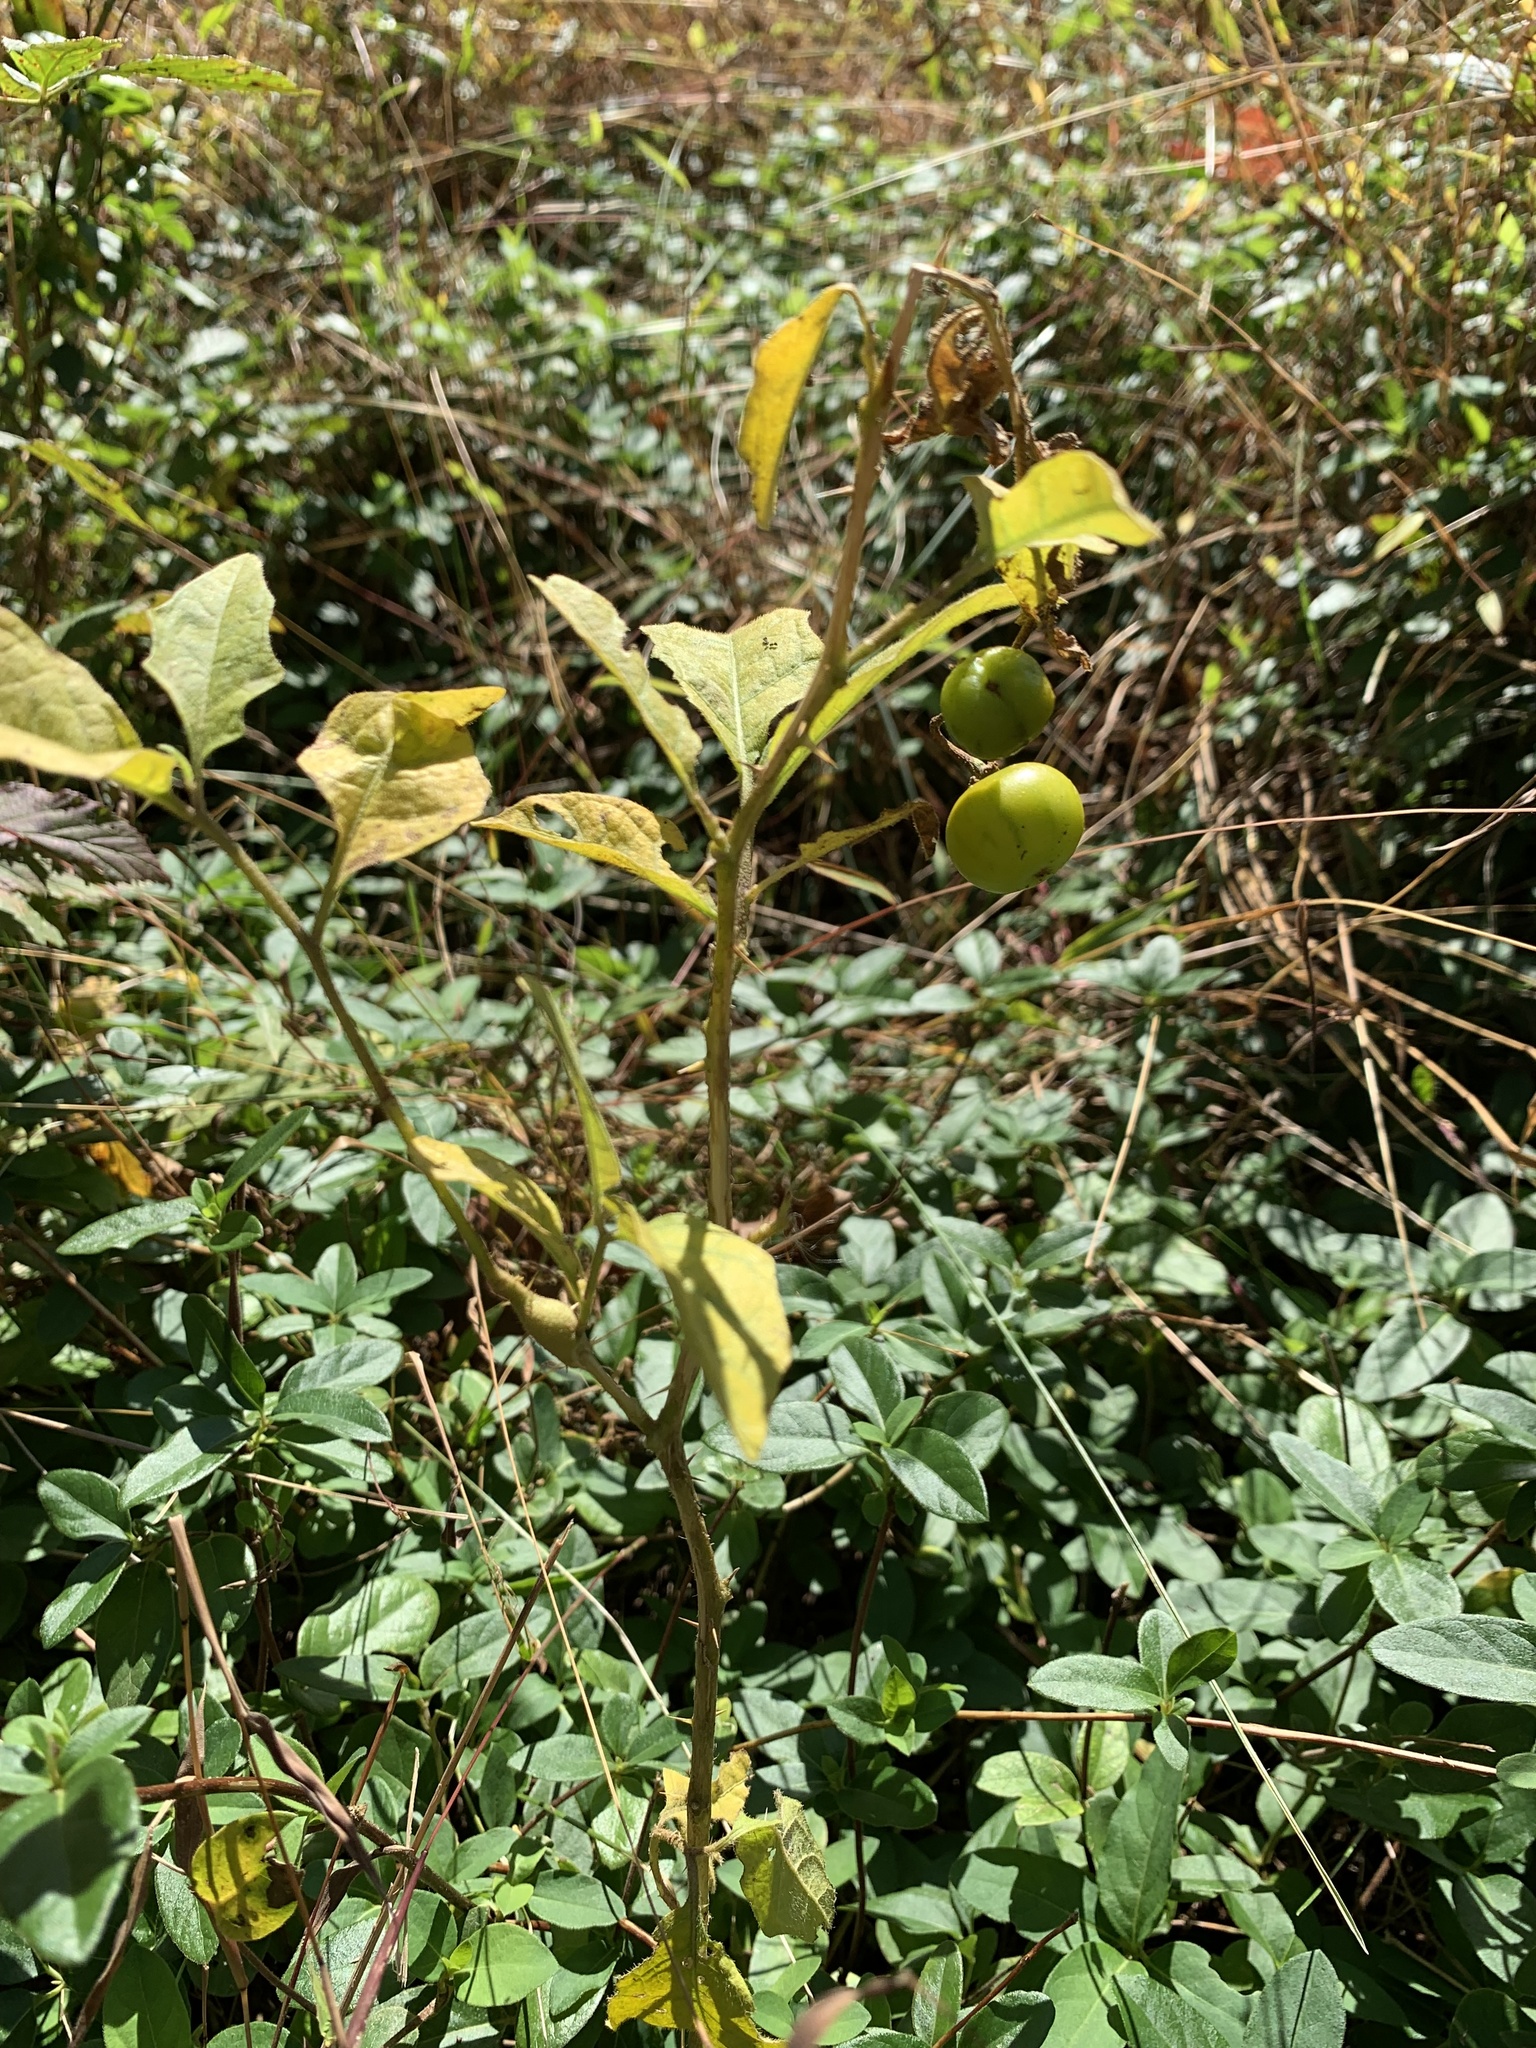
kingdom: Animalia
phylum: Arthropoda
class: Insecta
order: Diptera
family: Cecidomyiidae
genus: Lasioptera
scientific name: Lasioptera solani
